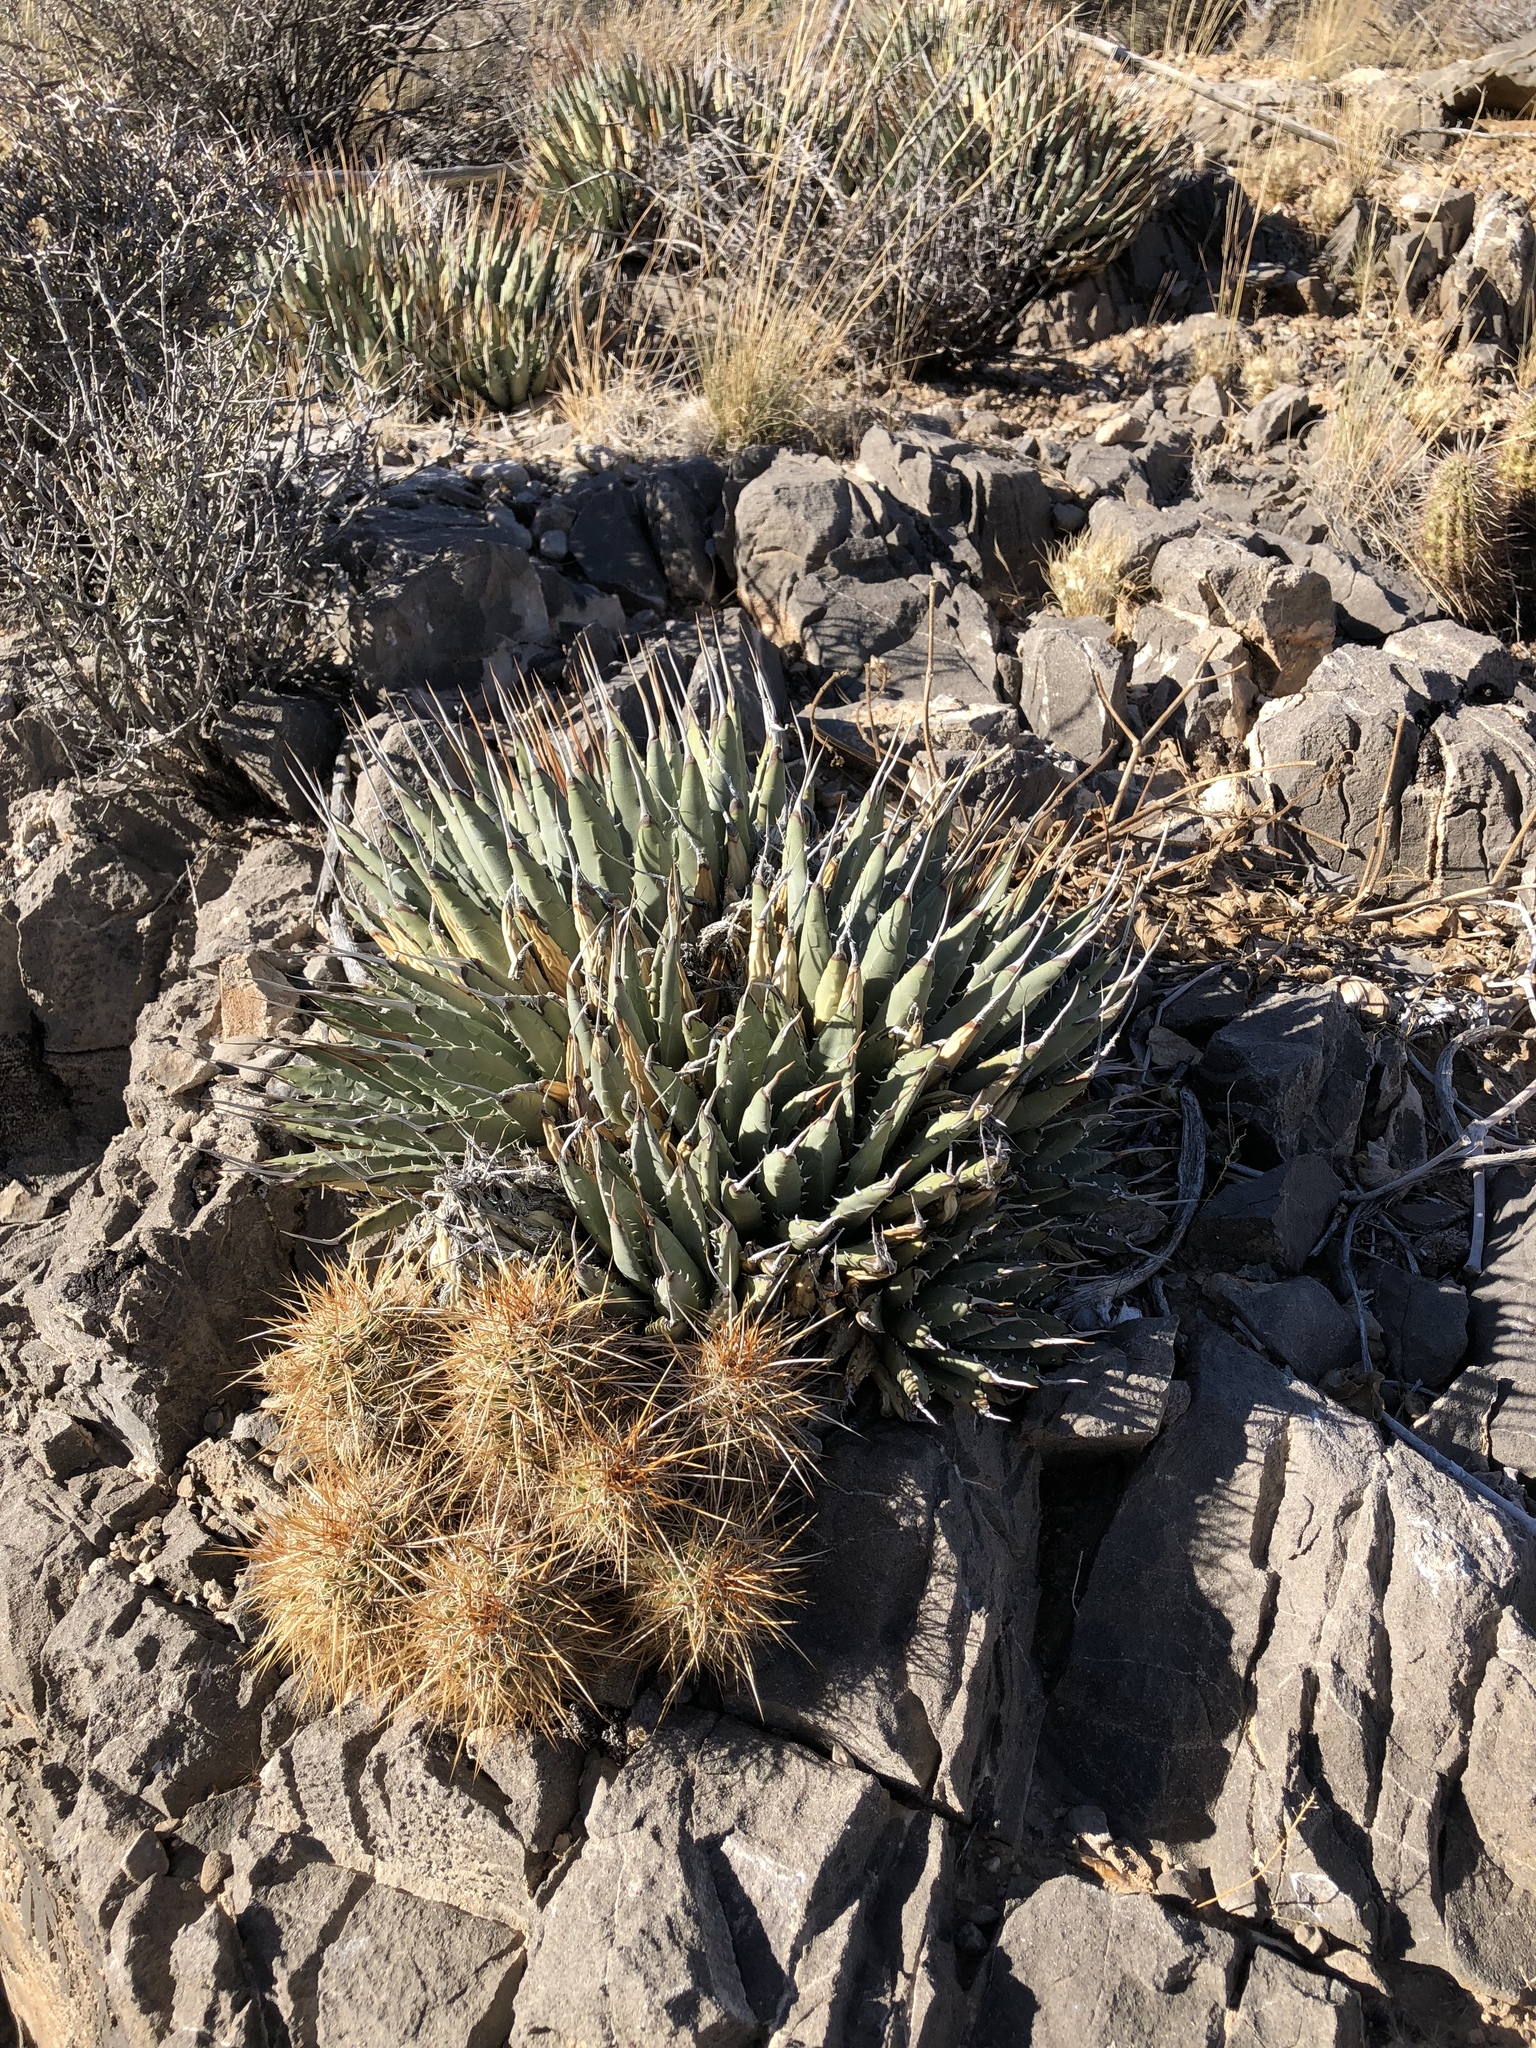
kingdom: Plantae
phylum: Tracheophyta
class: Liliopsida
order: Asparagales
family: Asparagaceae
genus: Agave
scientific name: Agave utahensis
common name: Utah agave
